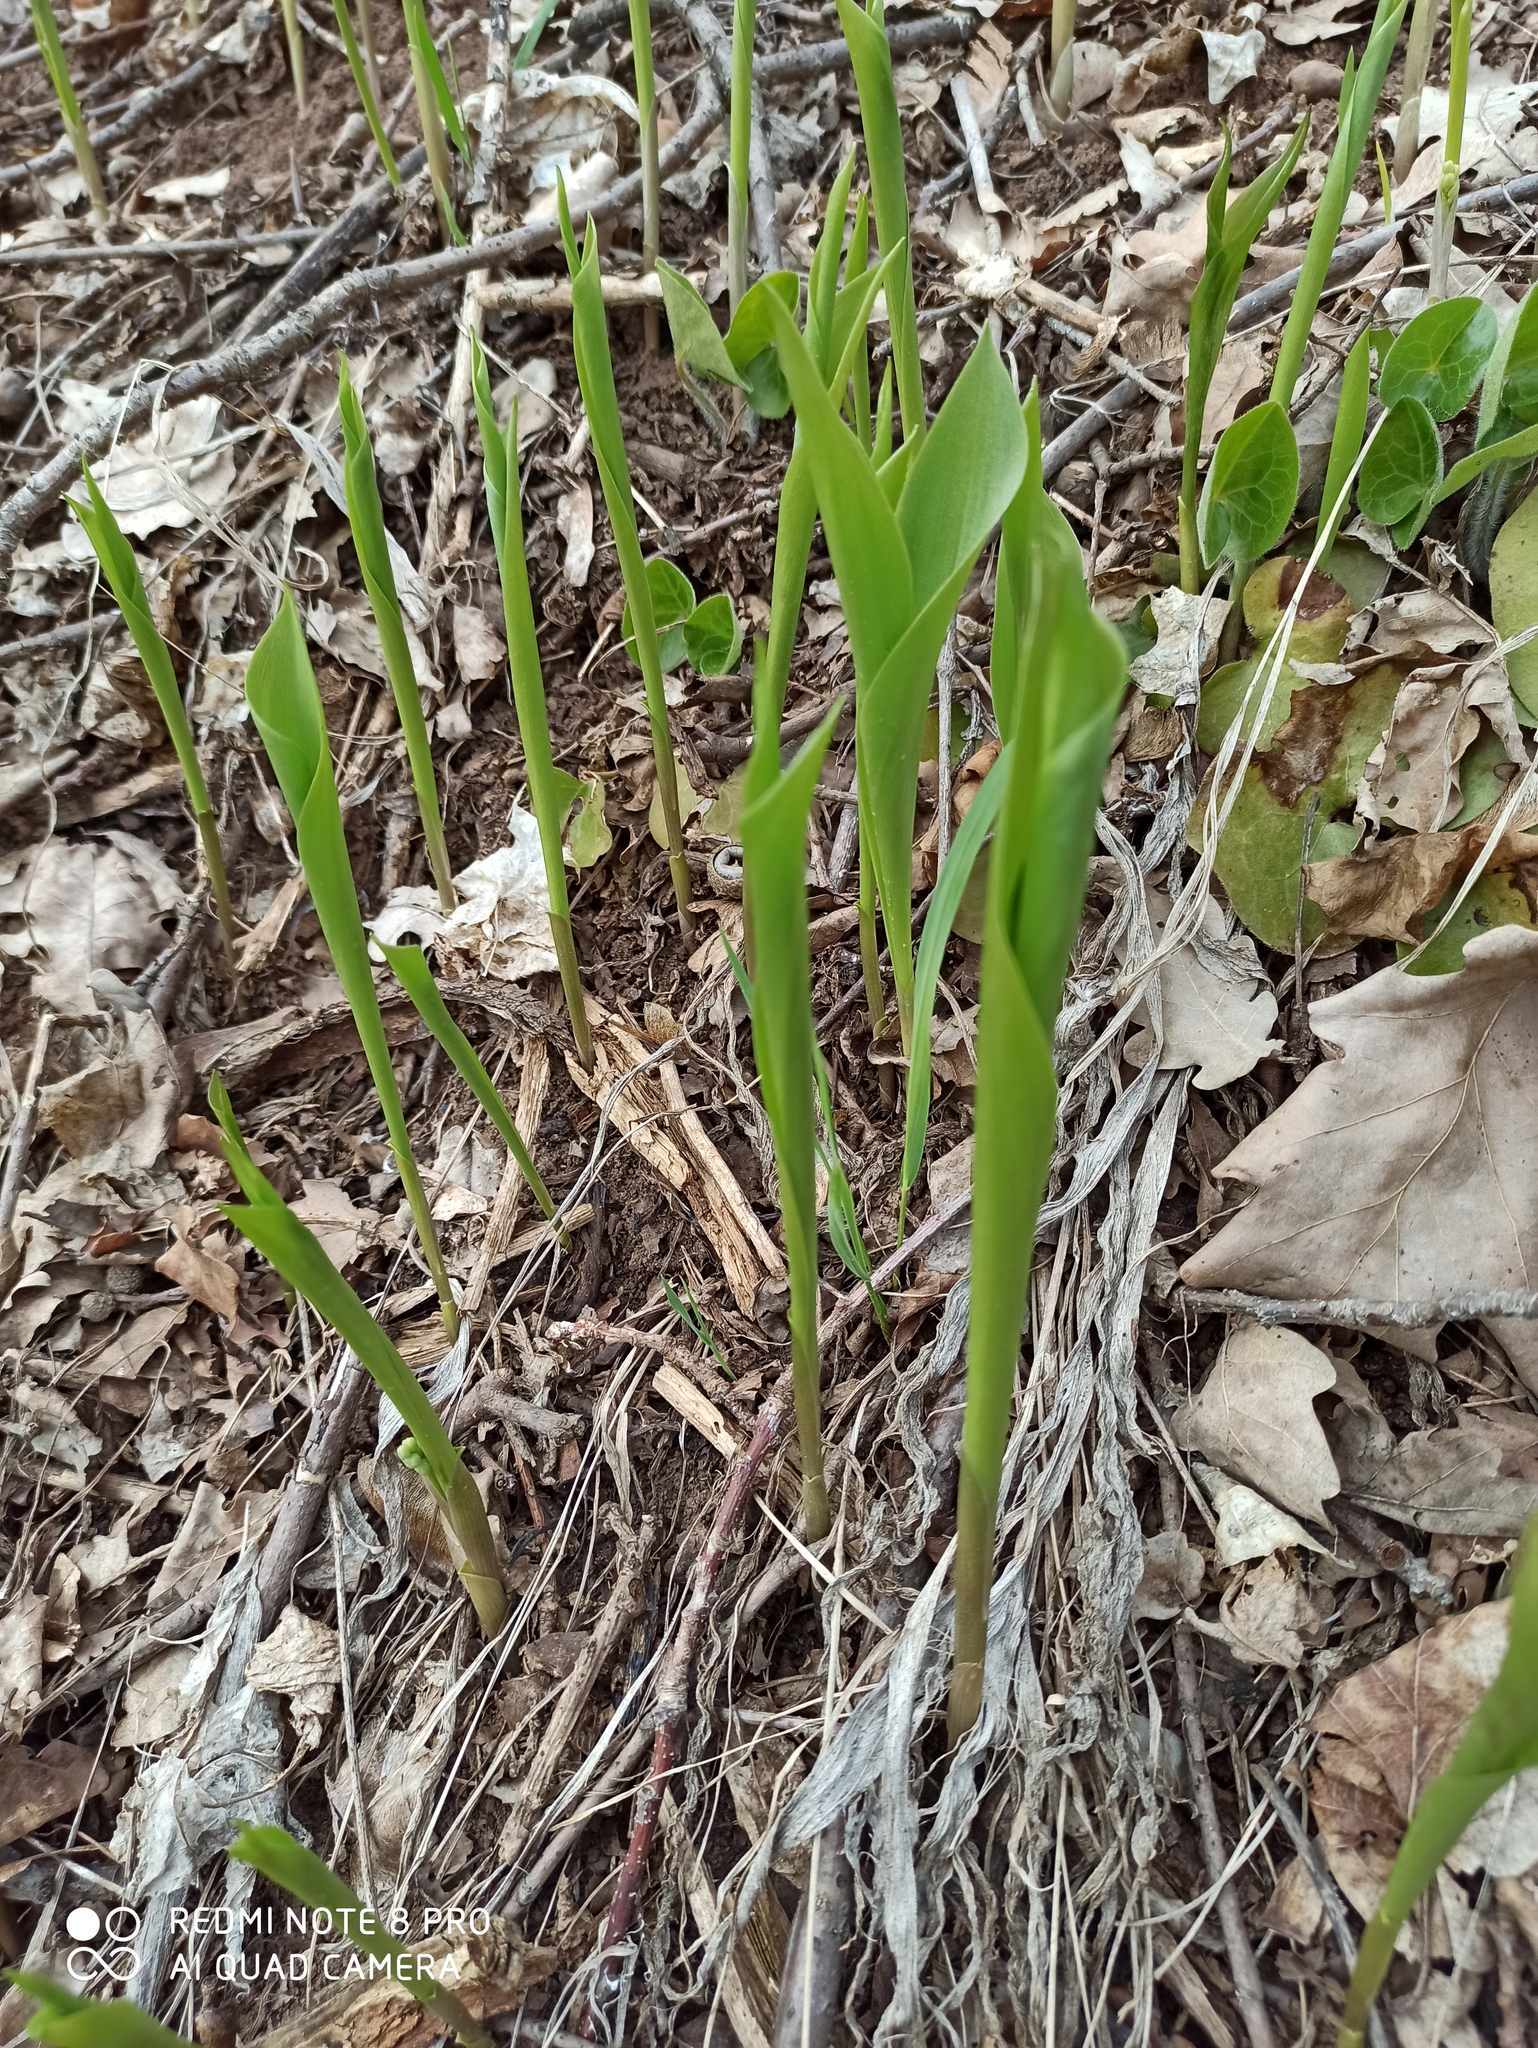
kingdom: Plantae
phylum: Tracheophyta
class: Liliopsida
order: Asparagales
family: Asparagaceae
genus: Convallaria
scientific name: Convallaria majalis
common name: Lily-of-the-valley
